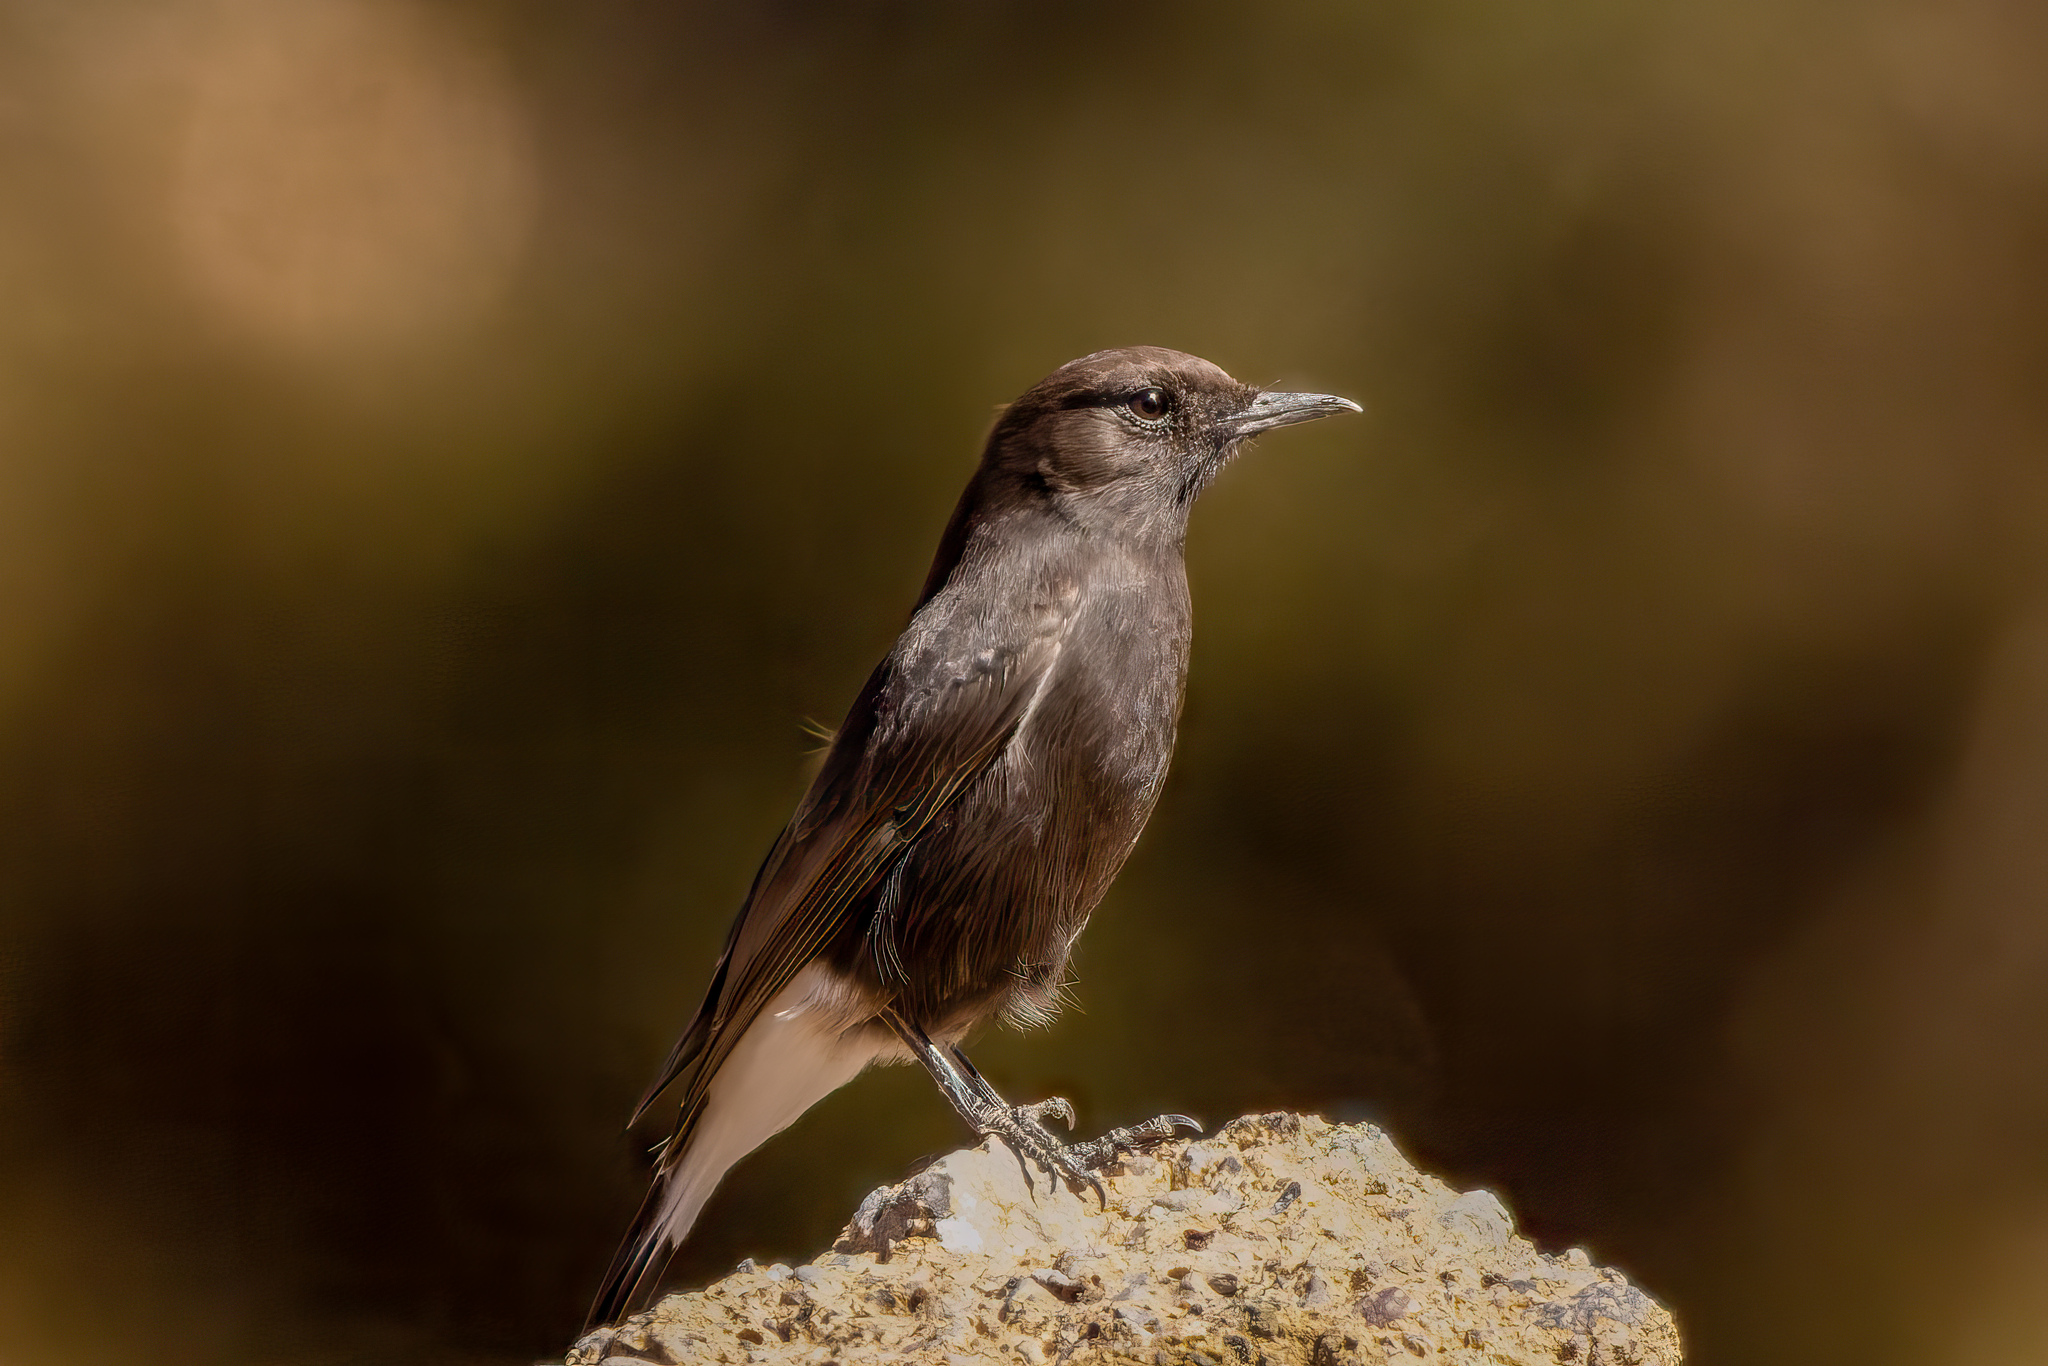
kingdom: Animalia
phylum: Chordata
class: Aves
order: Passeriformes
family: Muscicapidae
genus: Oenanthe
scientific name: Oenanthe leucura
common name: Black wheatear
